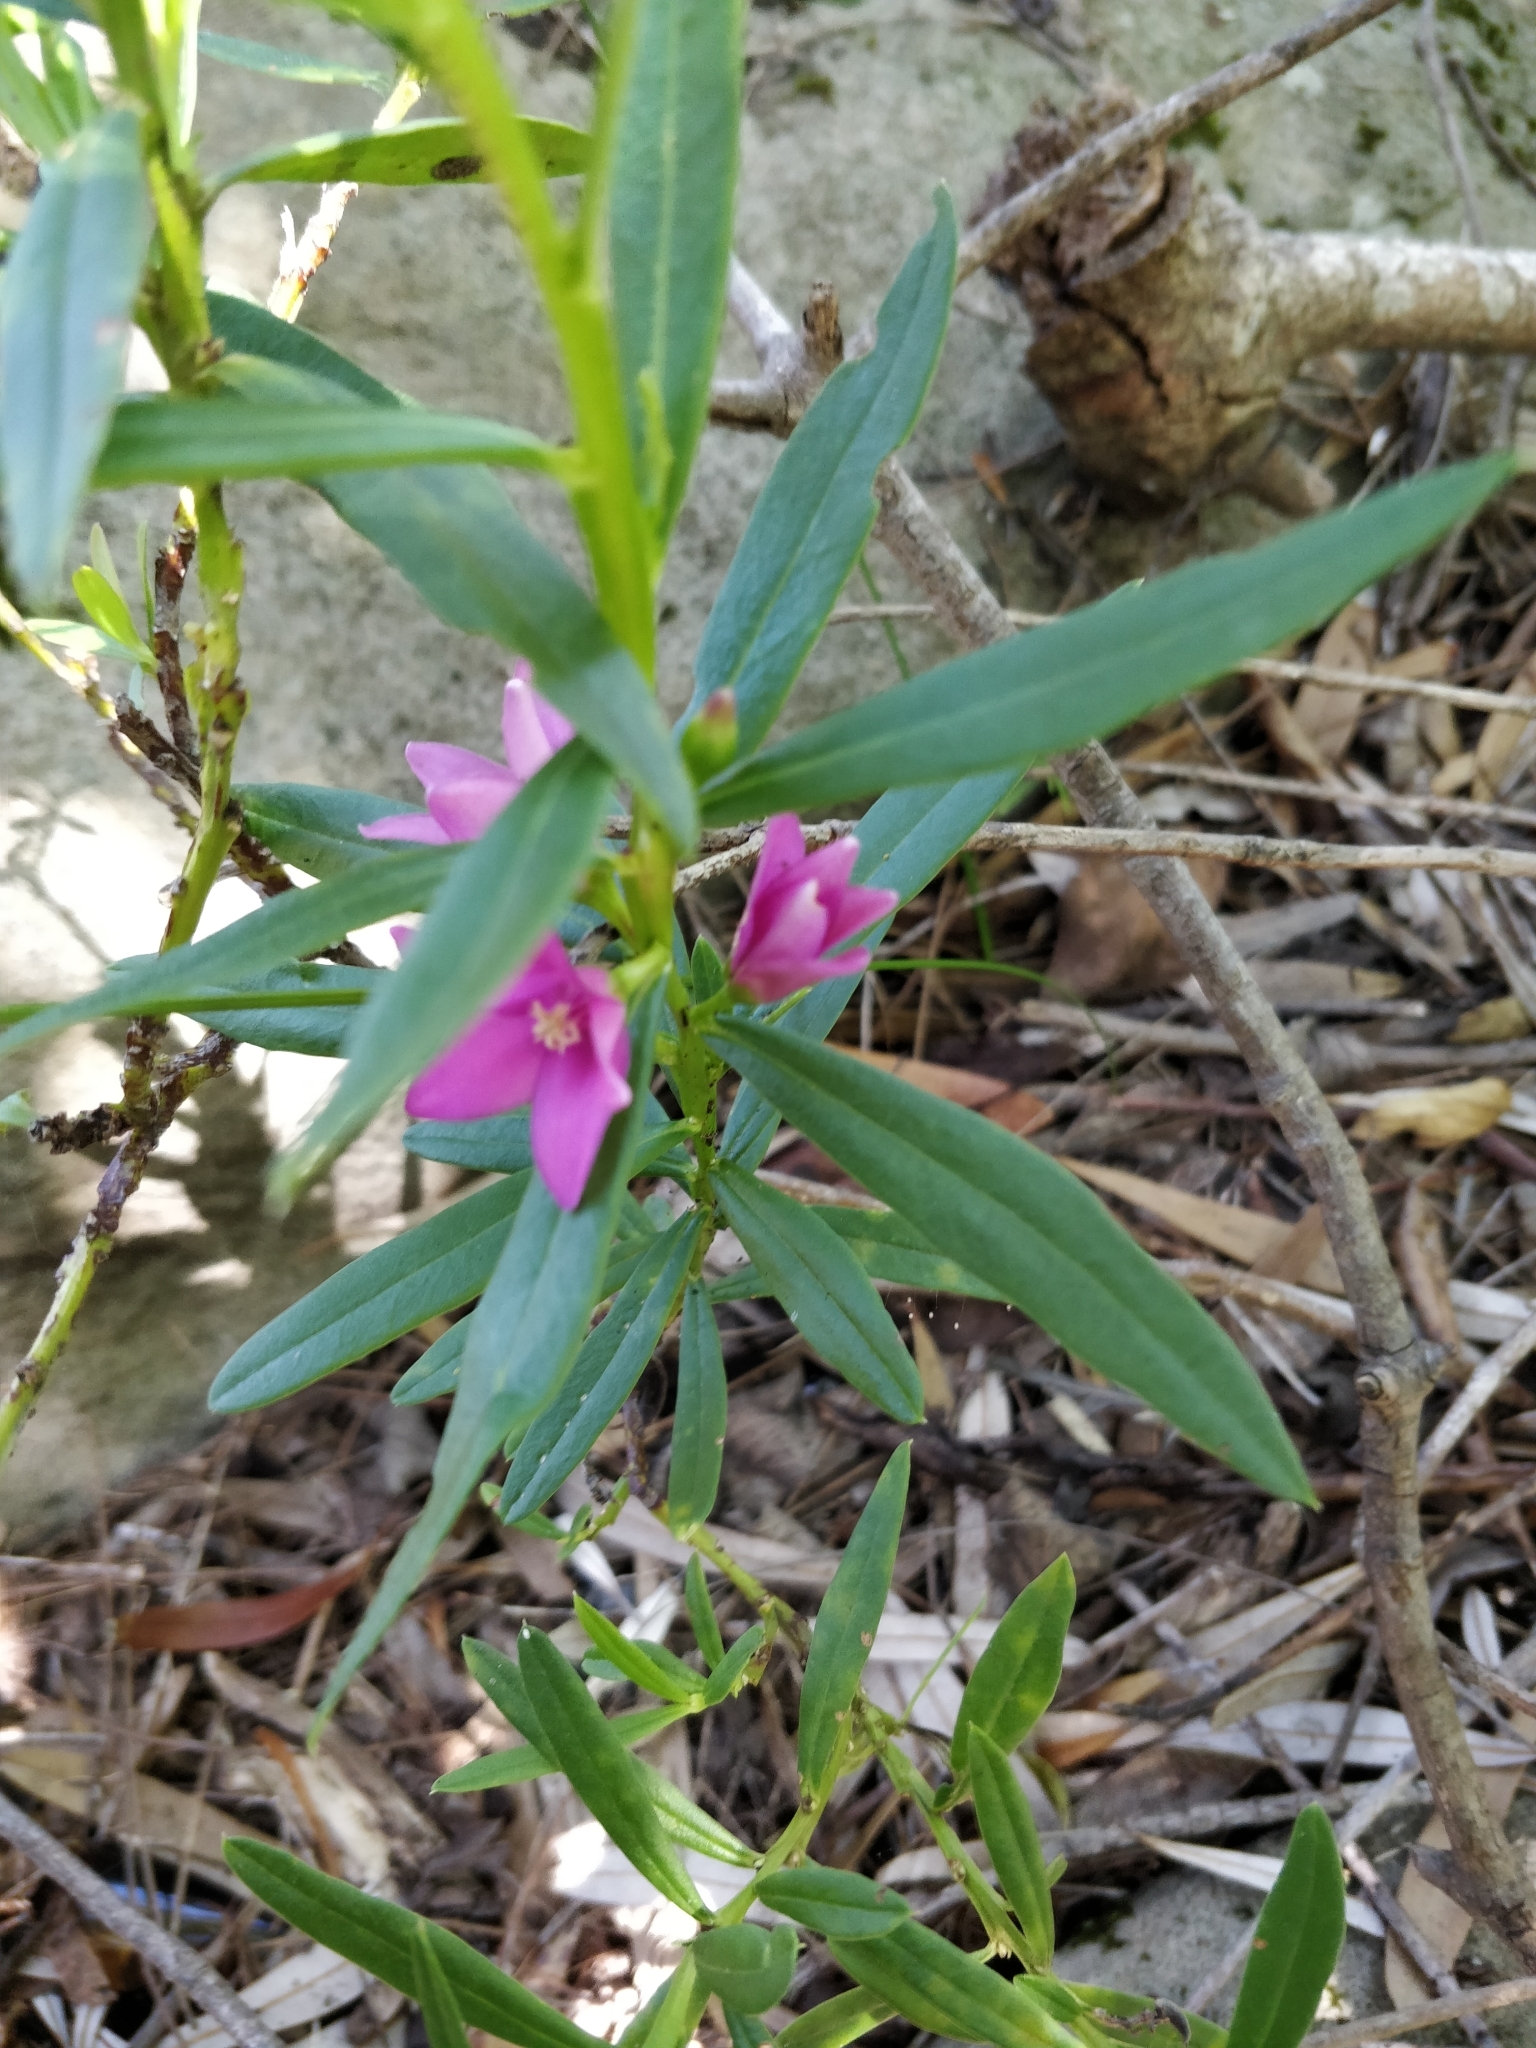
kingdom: Plantae
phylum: Tracheophyta
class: Magnoliopsida
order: Sapindales
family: Rutaceae
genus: Crowea
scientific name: Crowea saligna
